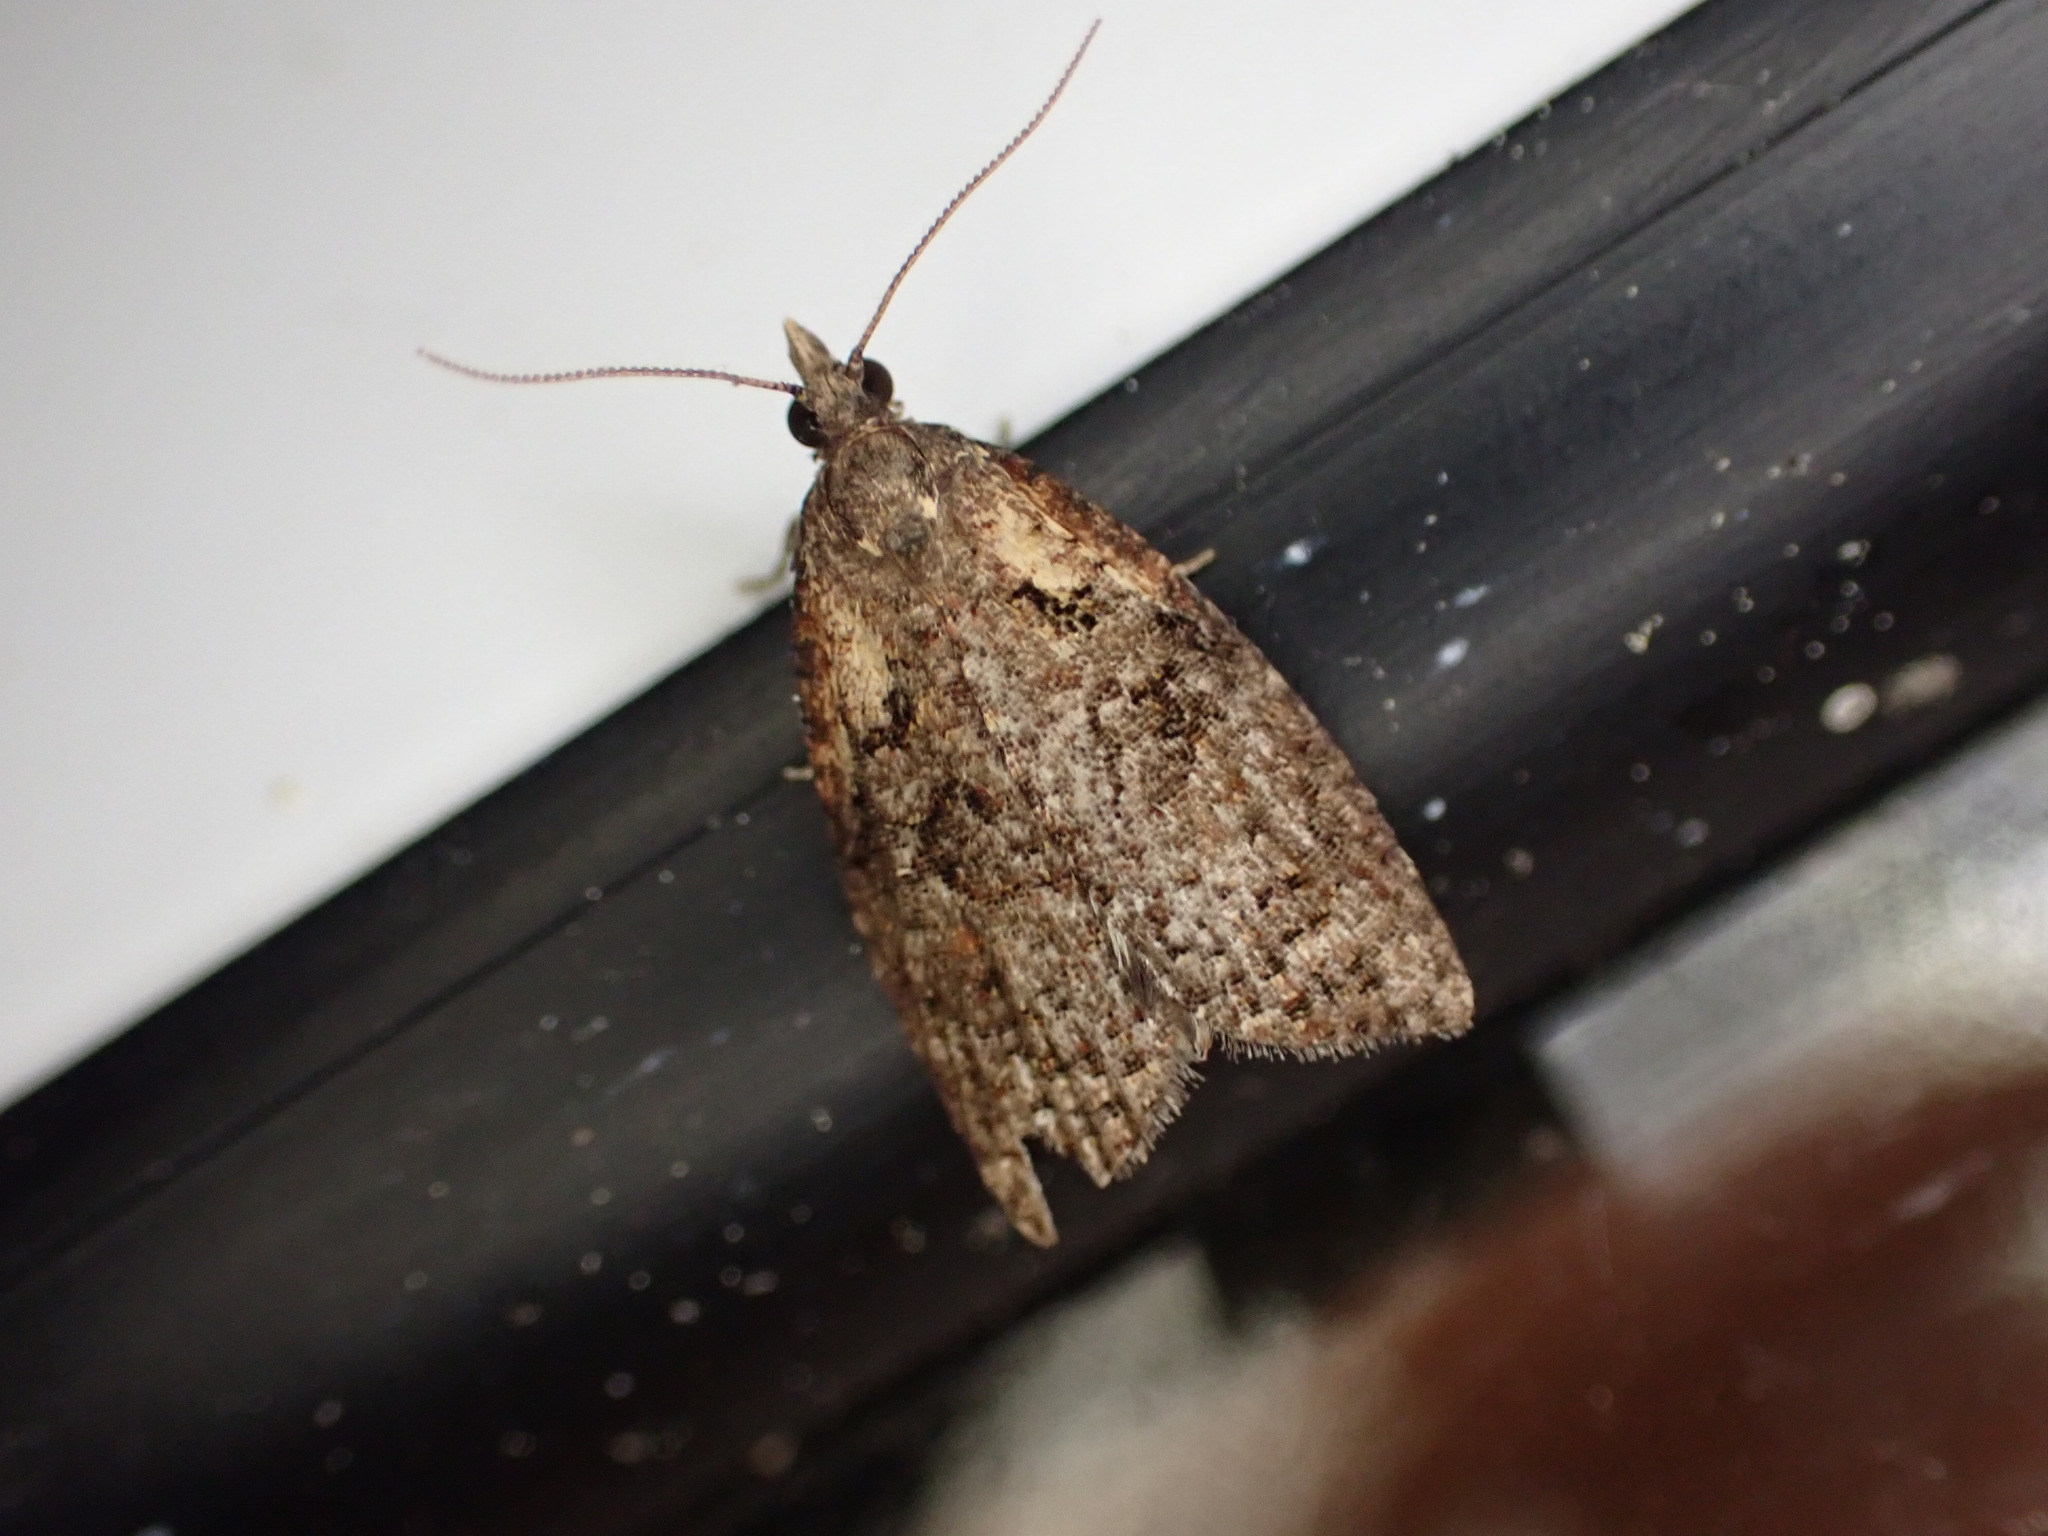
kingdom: Animalia
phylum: Arthropoda
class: Insecta
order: Lepidoptera
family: Tortricidae
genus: Capua
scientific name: Capua intractana
